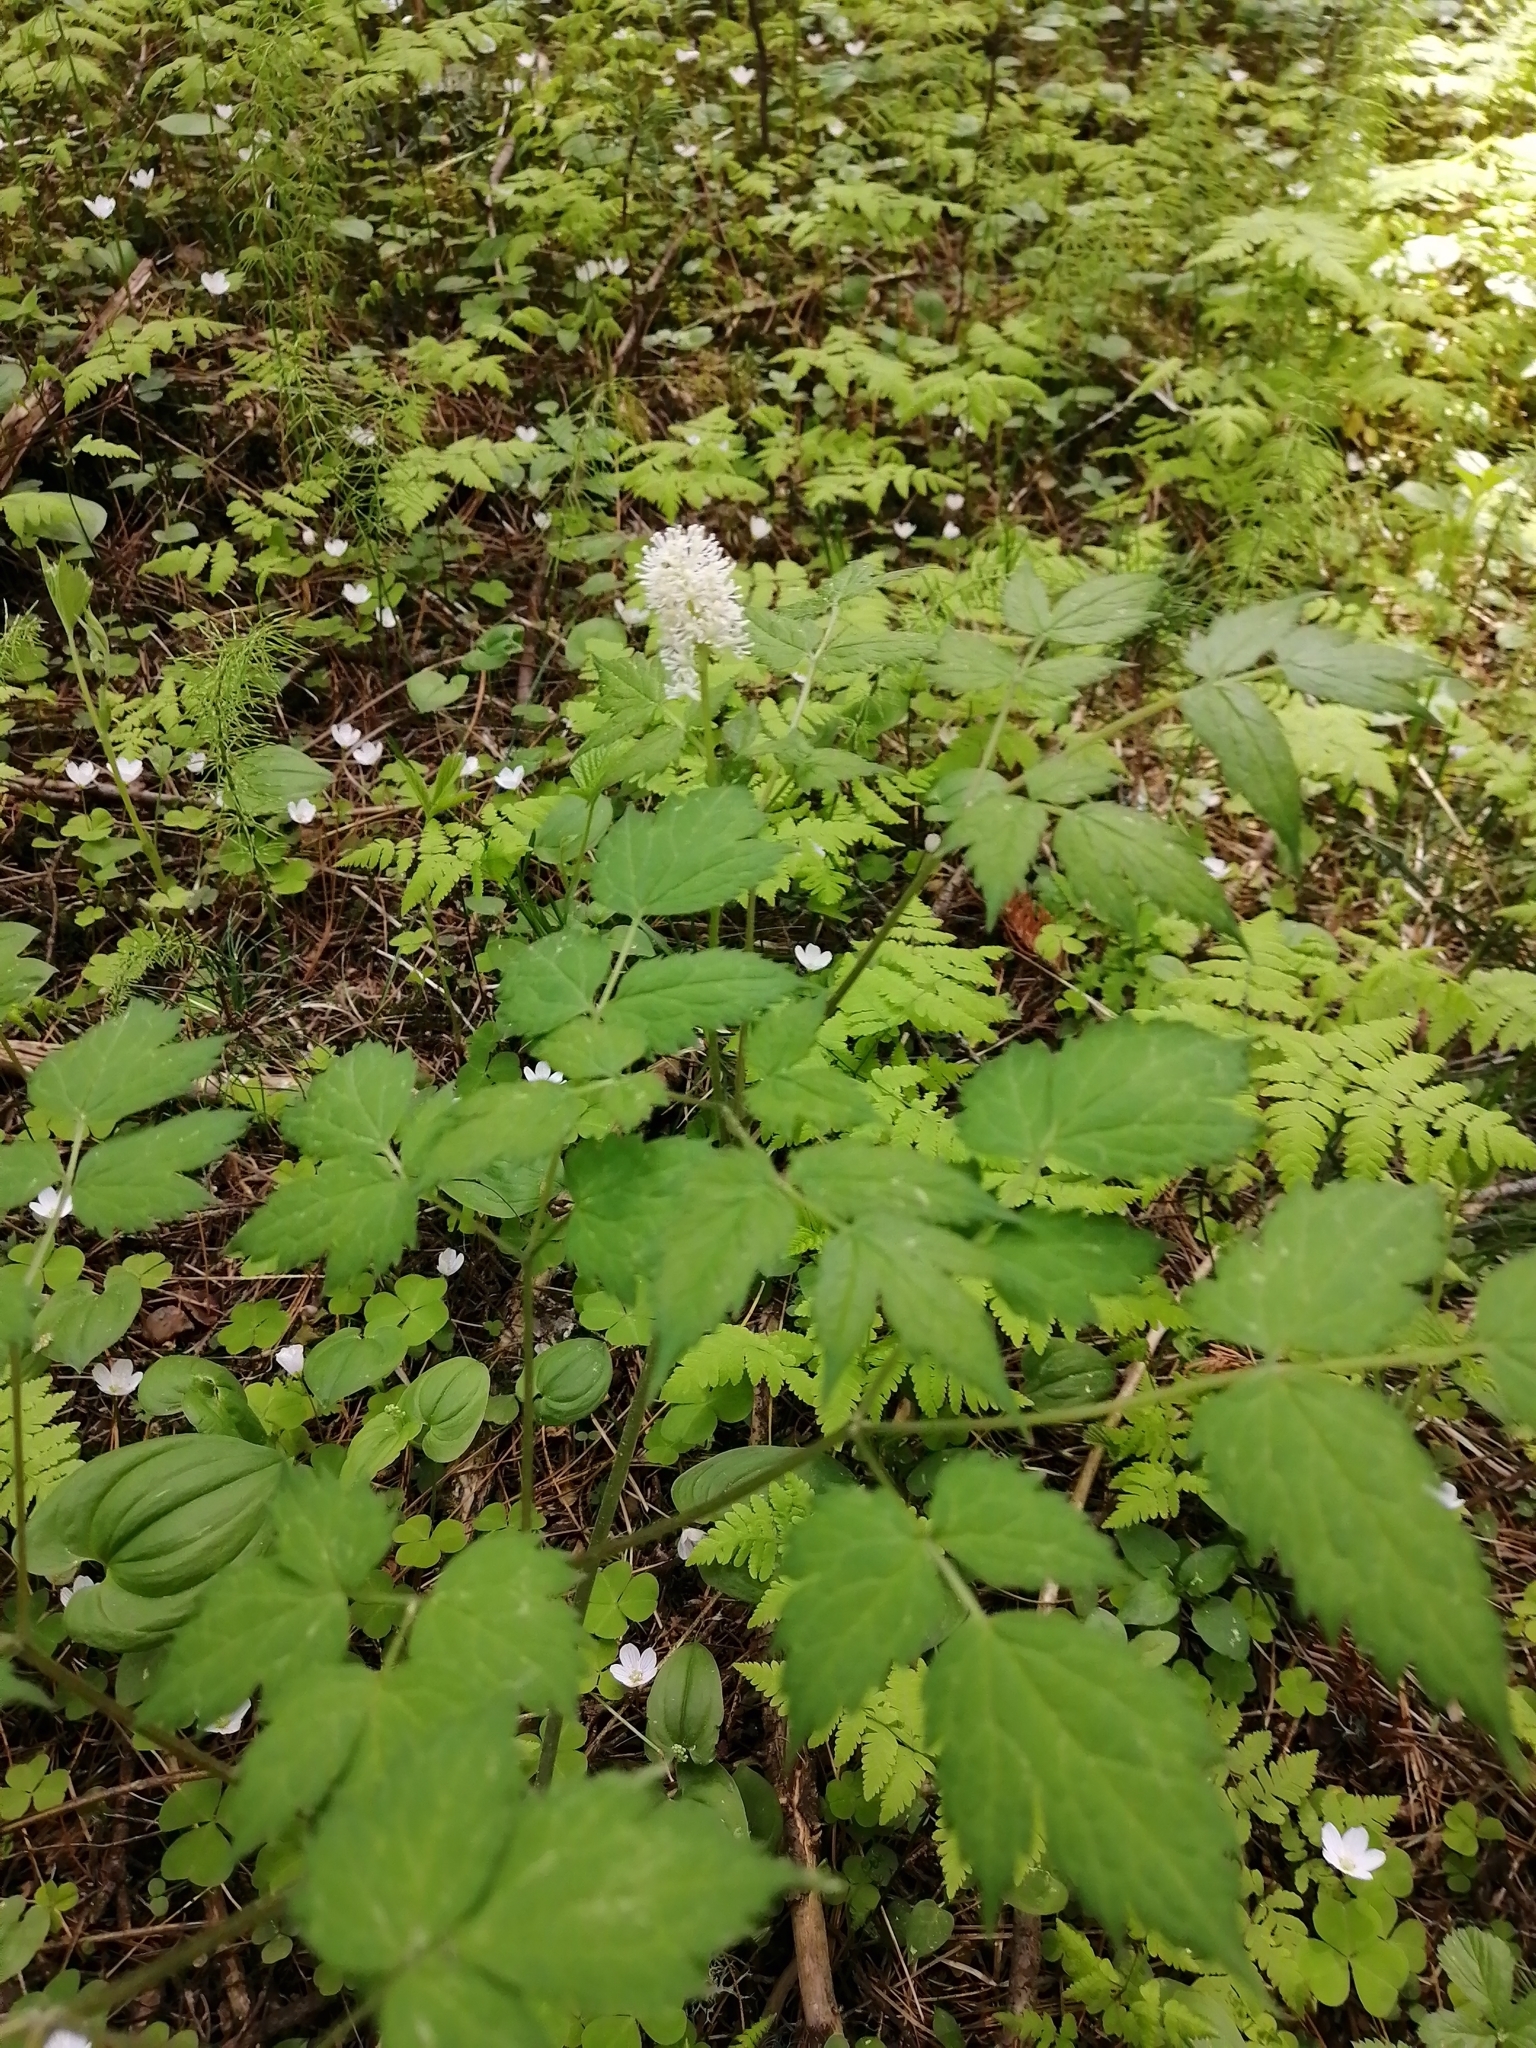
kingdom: Plantae
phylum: Tracheophyta
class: Magnoliopsida
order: Ranunculales
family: Ranunculaceae
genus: Actaea
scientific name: Actaea erythrocarpa
